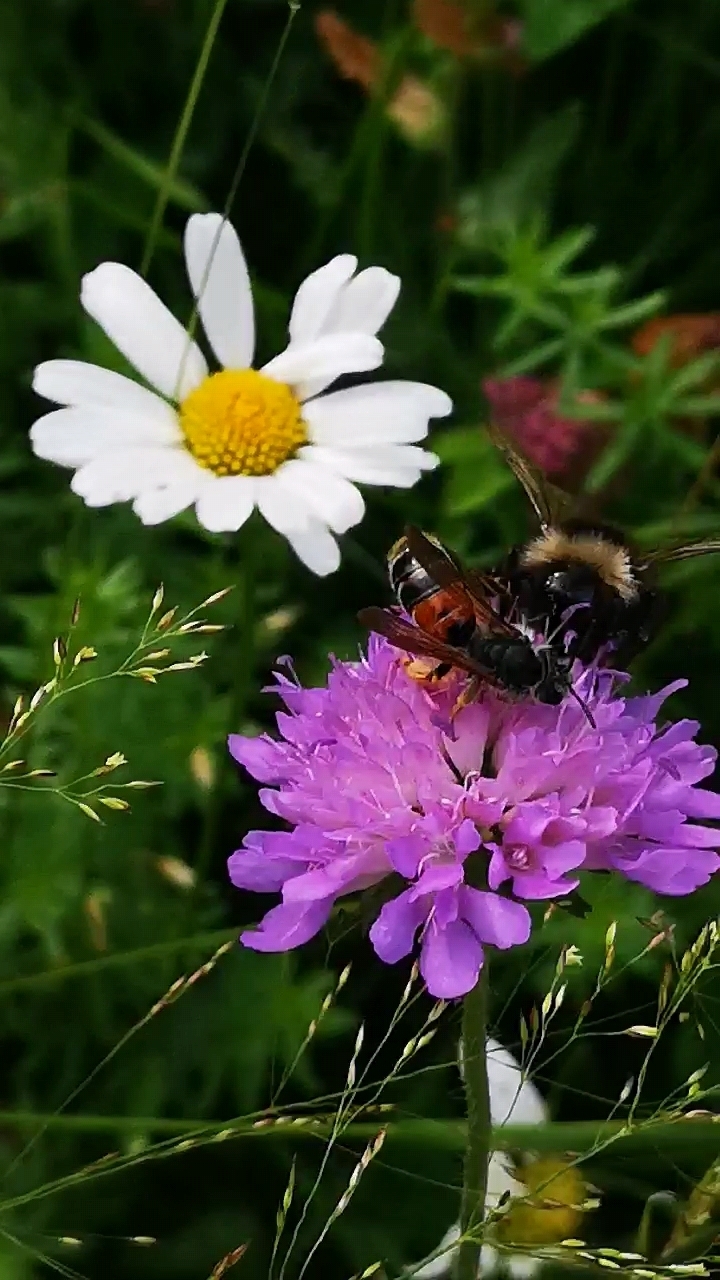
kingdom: Animalia
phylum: Arthropoda
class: Insecta
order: Hymenoptera
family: Andrenidae
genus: Andrena
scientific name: Andrena hattorfiana
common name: Large scabious mining bee
